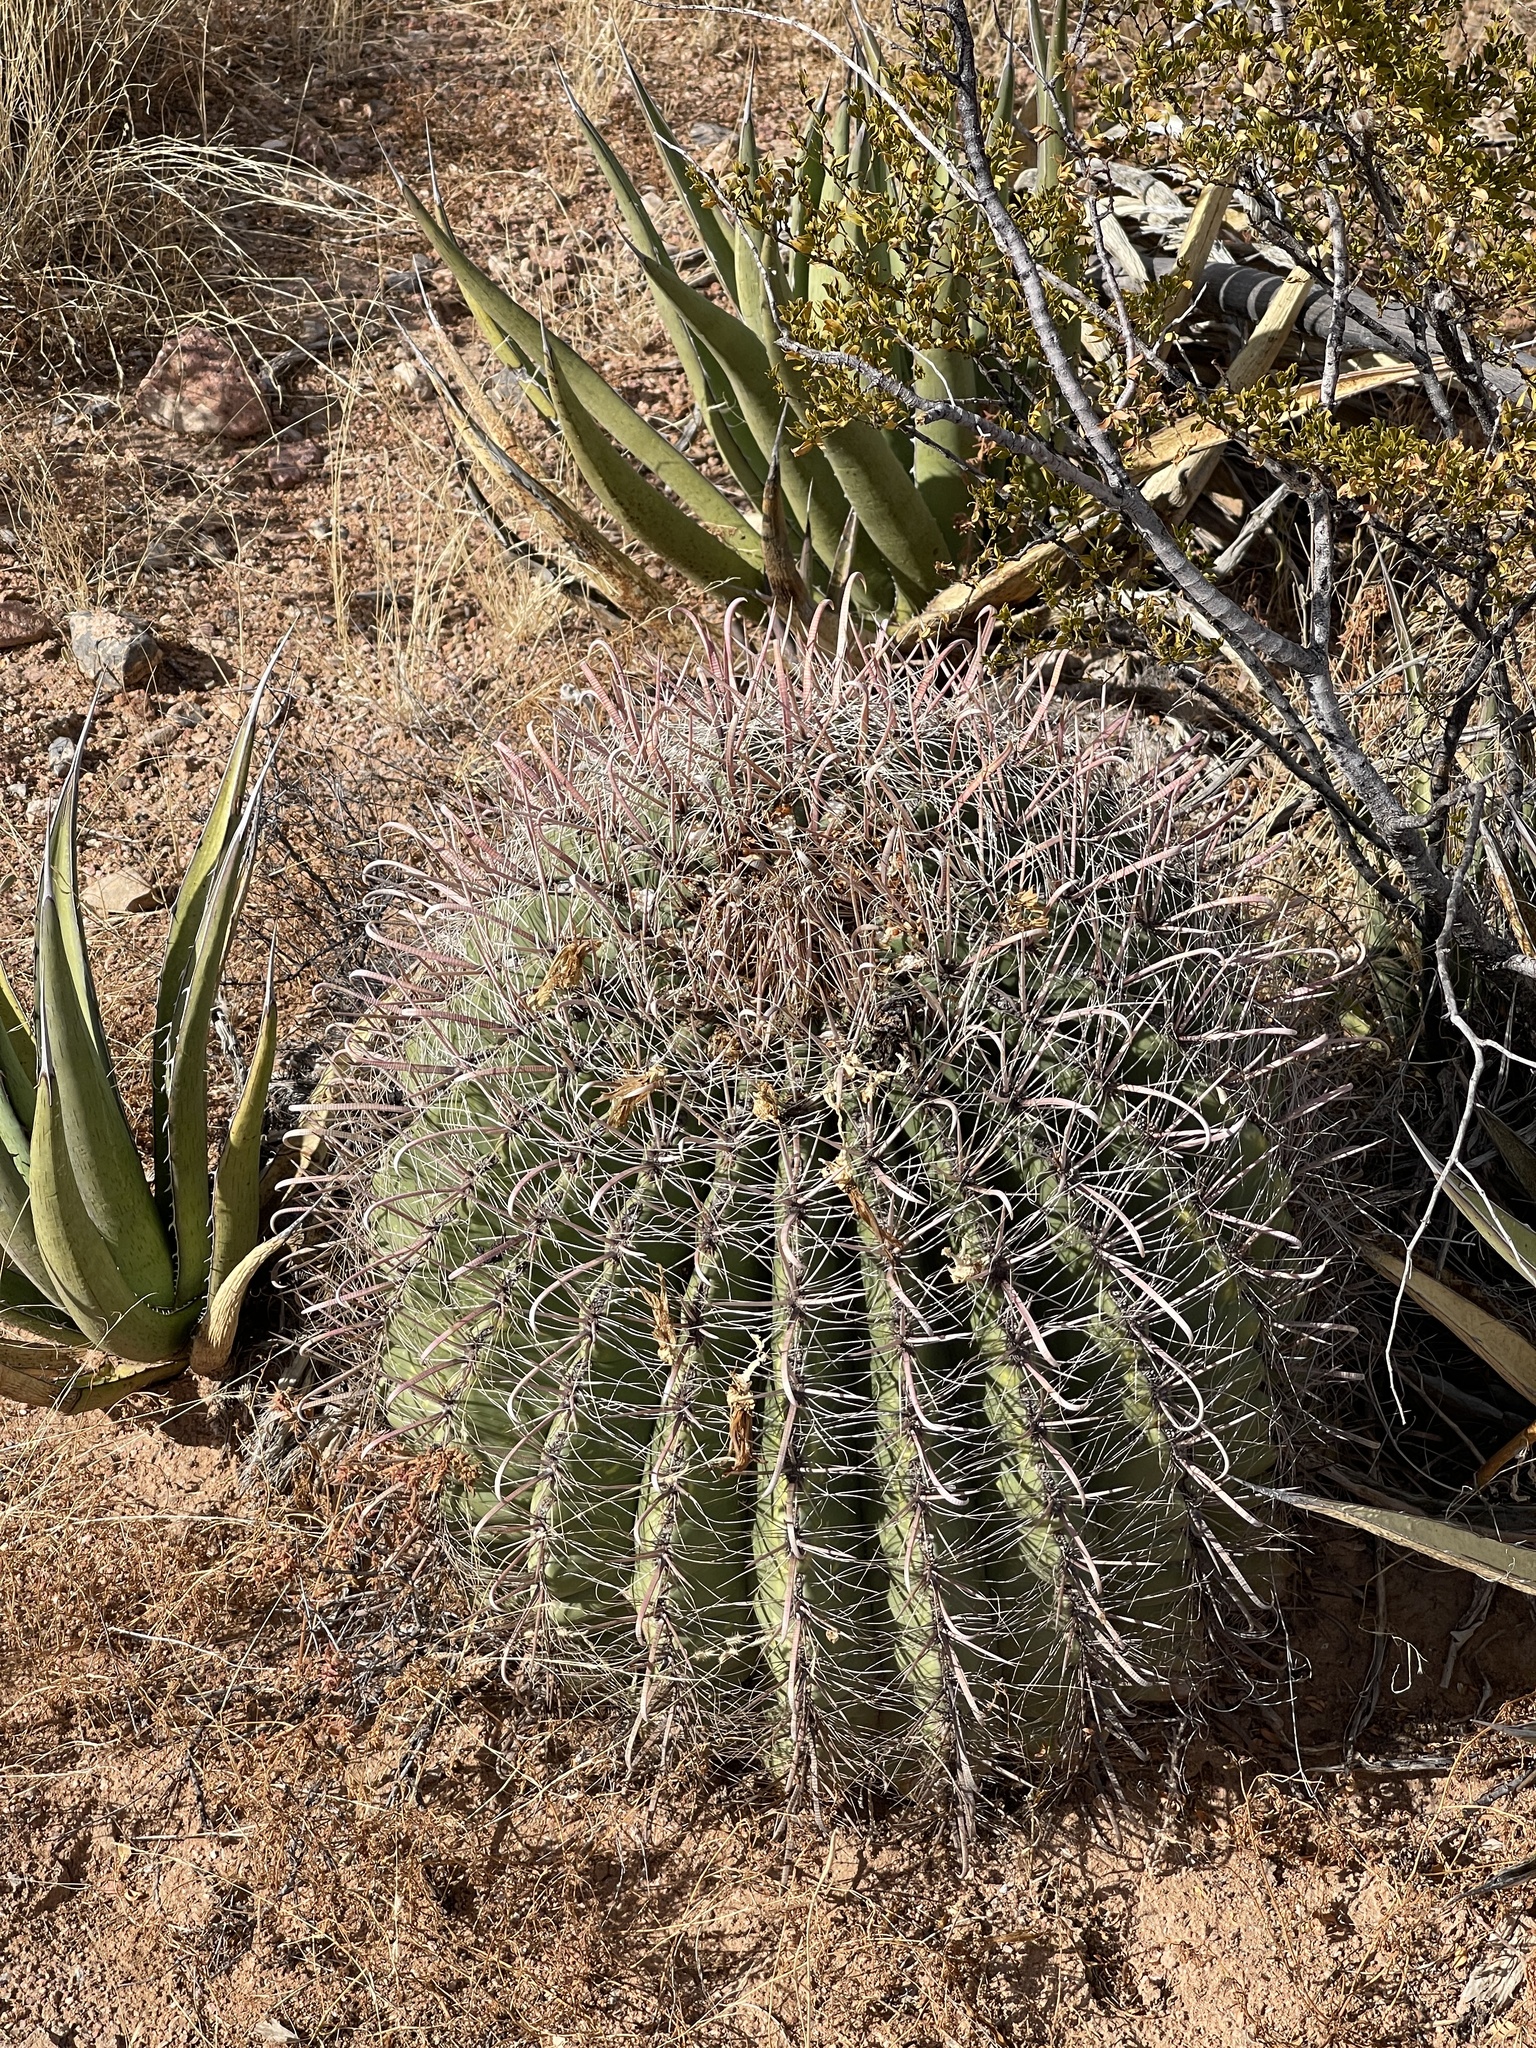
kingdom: Plantae
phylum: Tracheophyta
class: Magnoliopsida
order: Caryophyllales
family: Cactaceae
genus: Ferocactus
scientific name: Ferocactus wislizeni
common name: Candy barrel cactus
